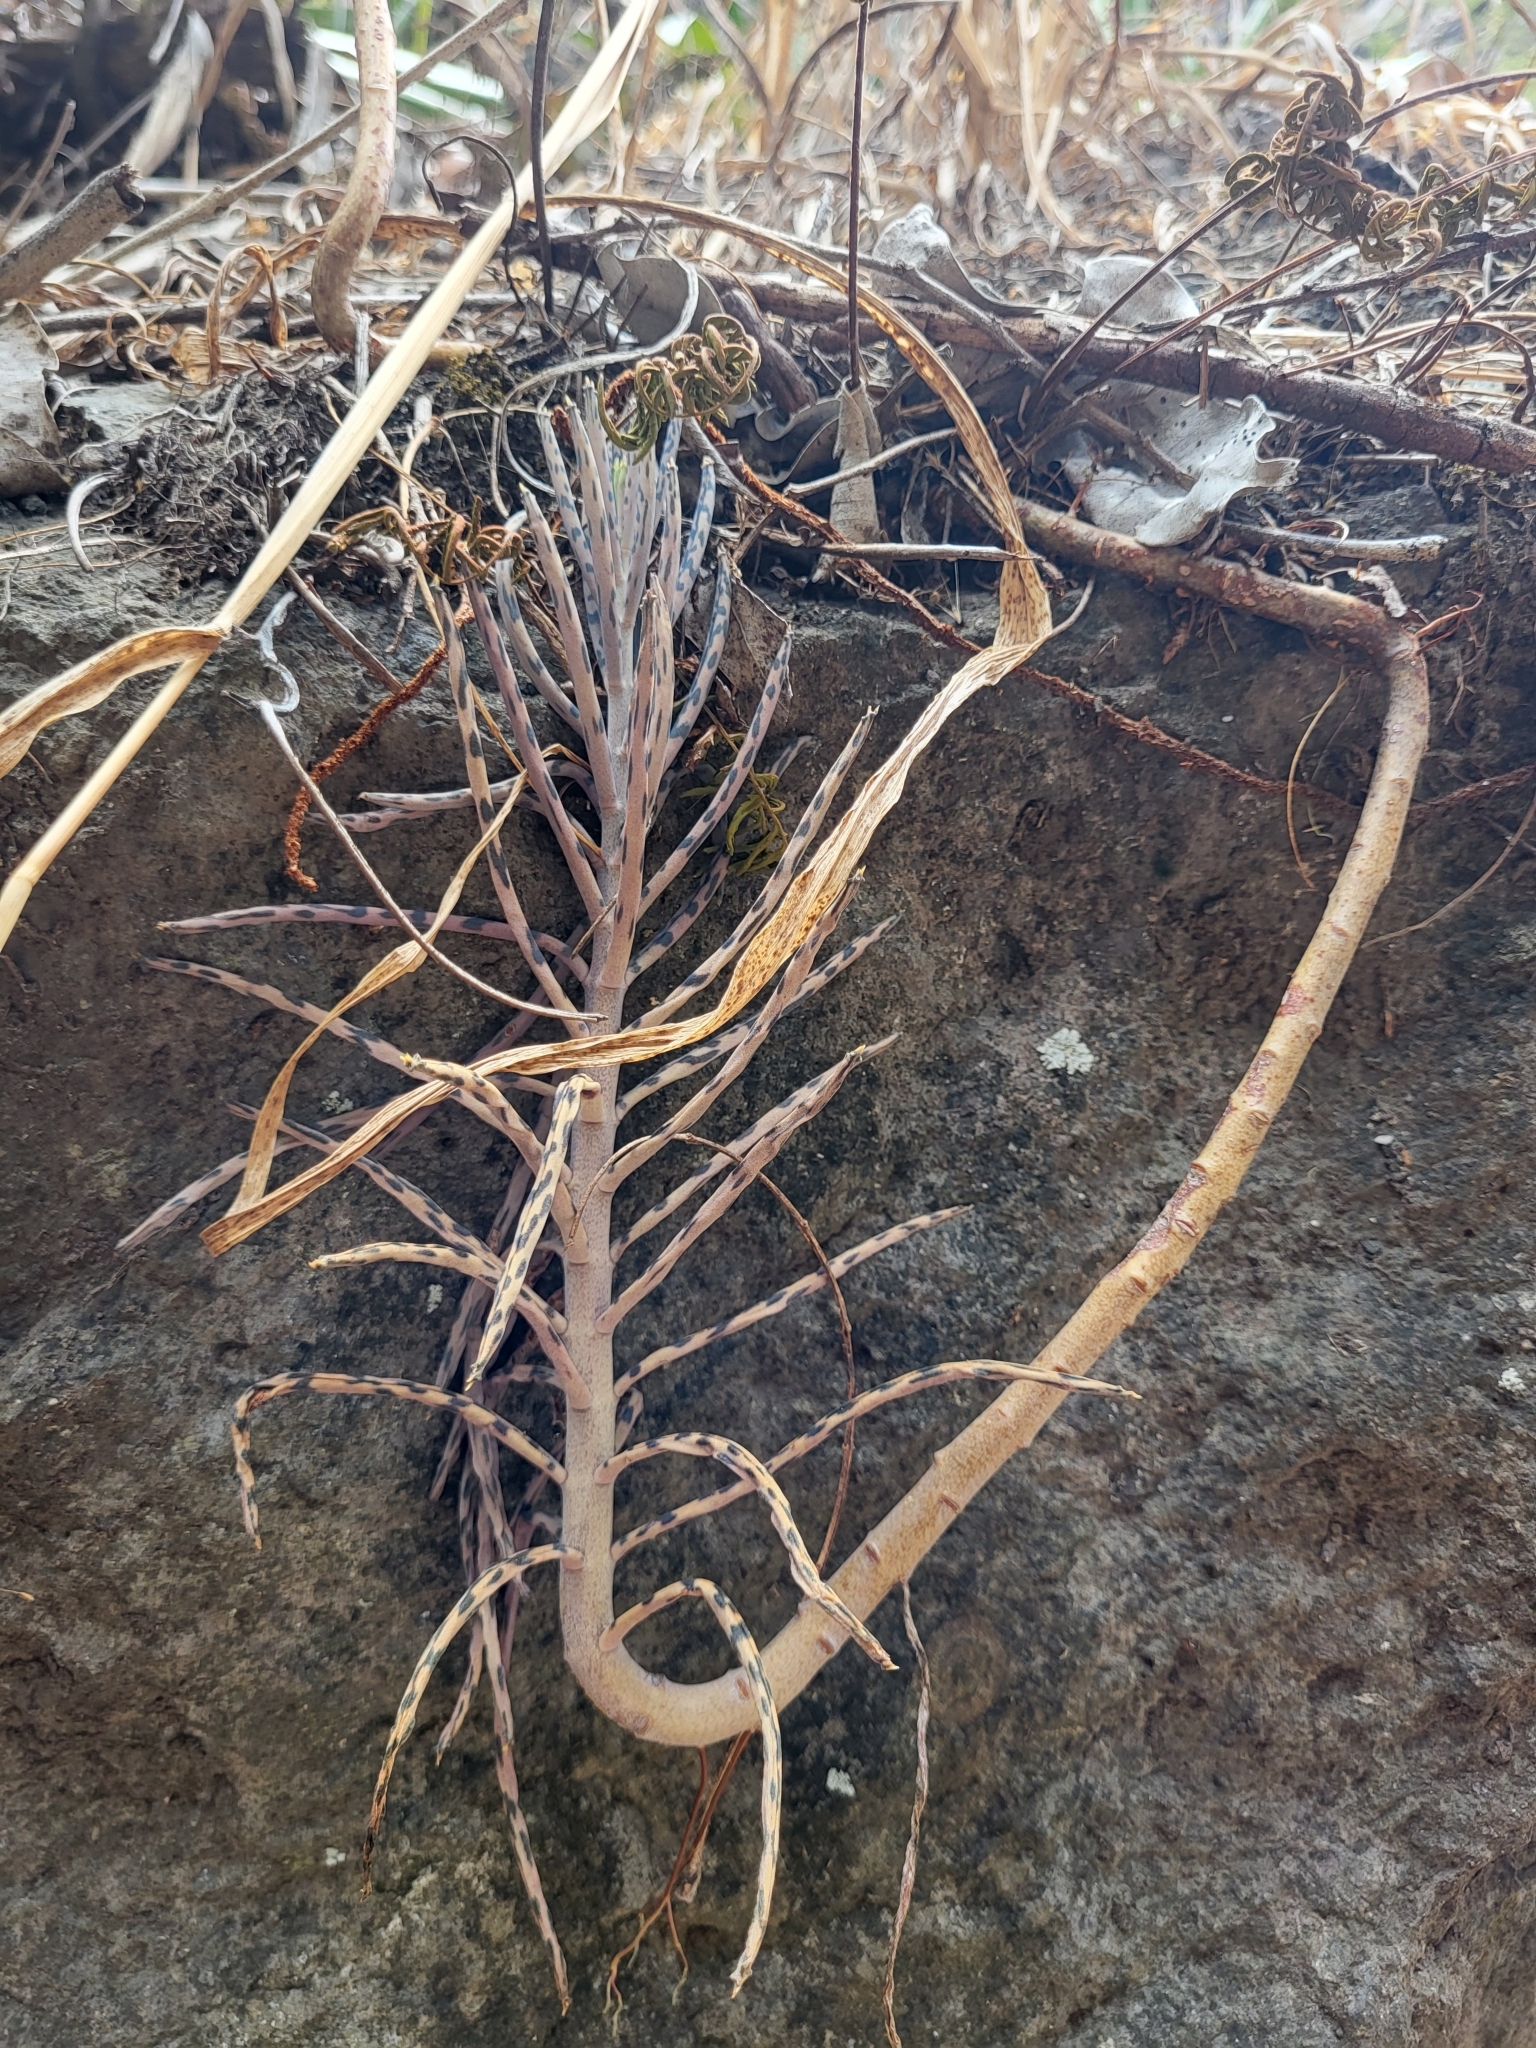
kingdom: Plantae
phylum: Tracheophyta
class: Magnoliopsida
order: Saxifragales
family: Crassulaceae
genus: Kalanchoe
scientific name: Kalanchoe delagoensis
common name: Chandelier plant
